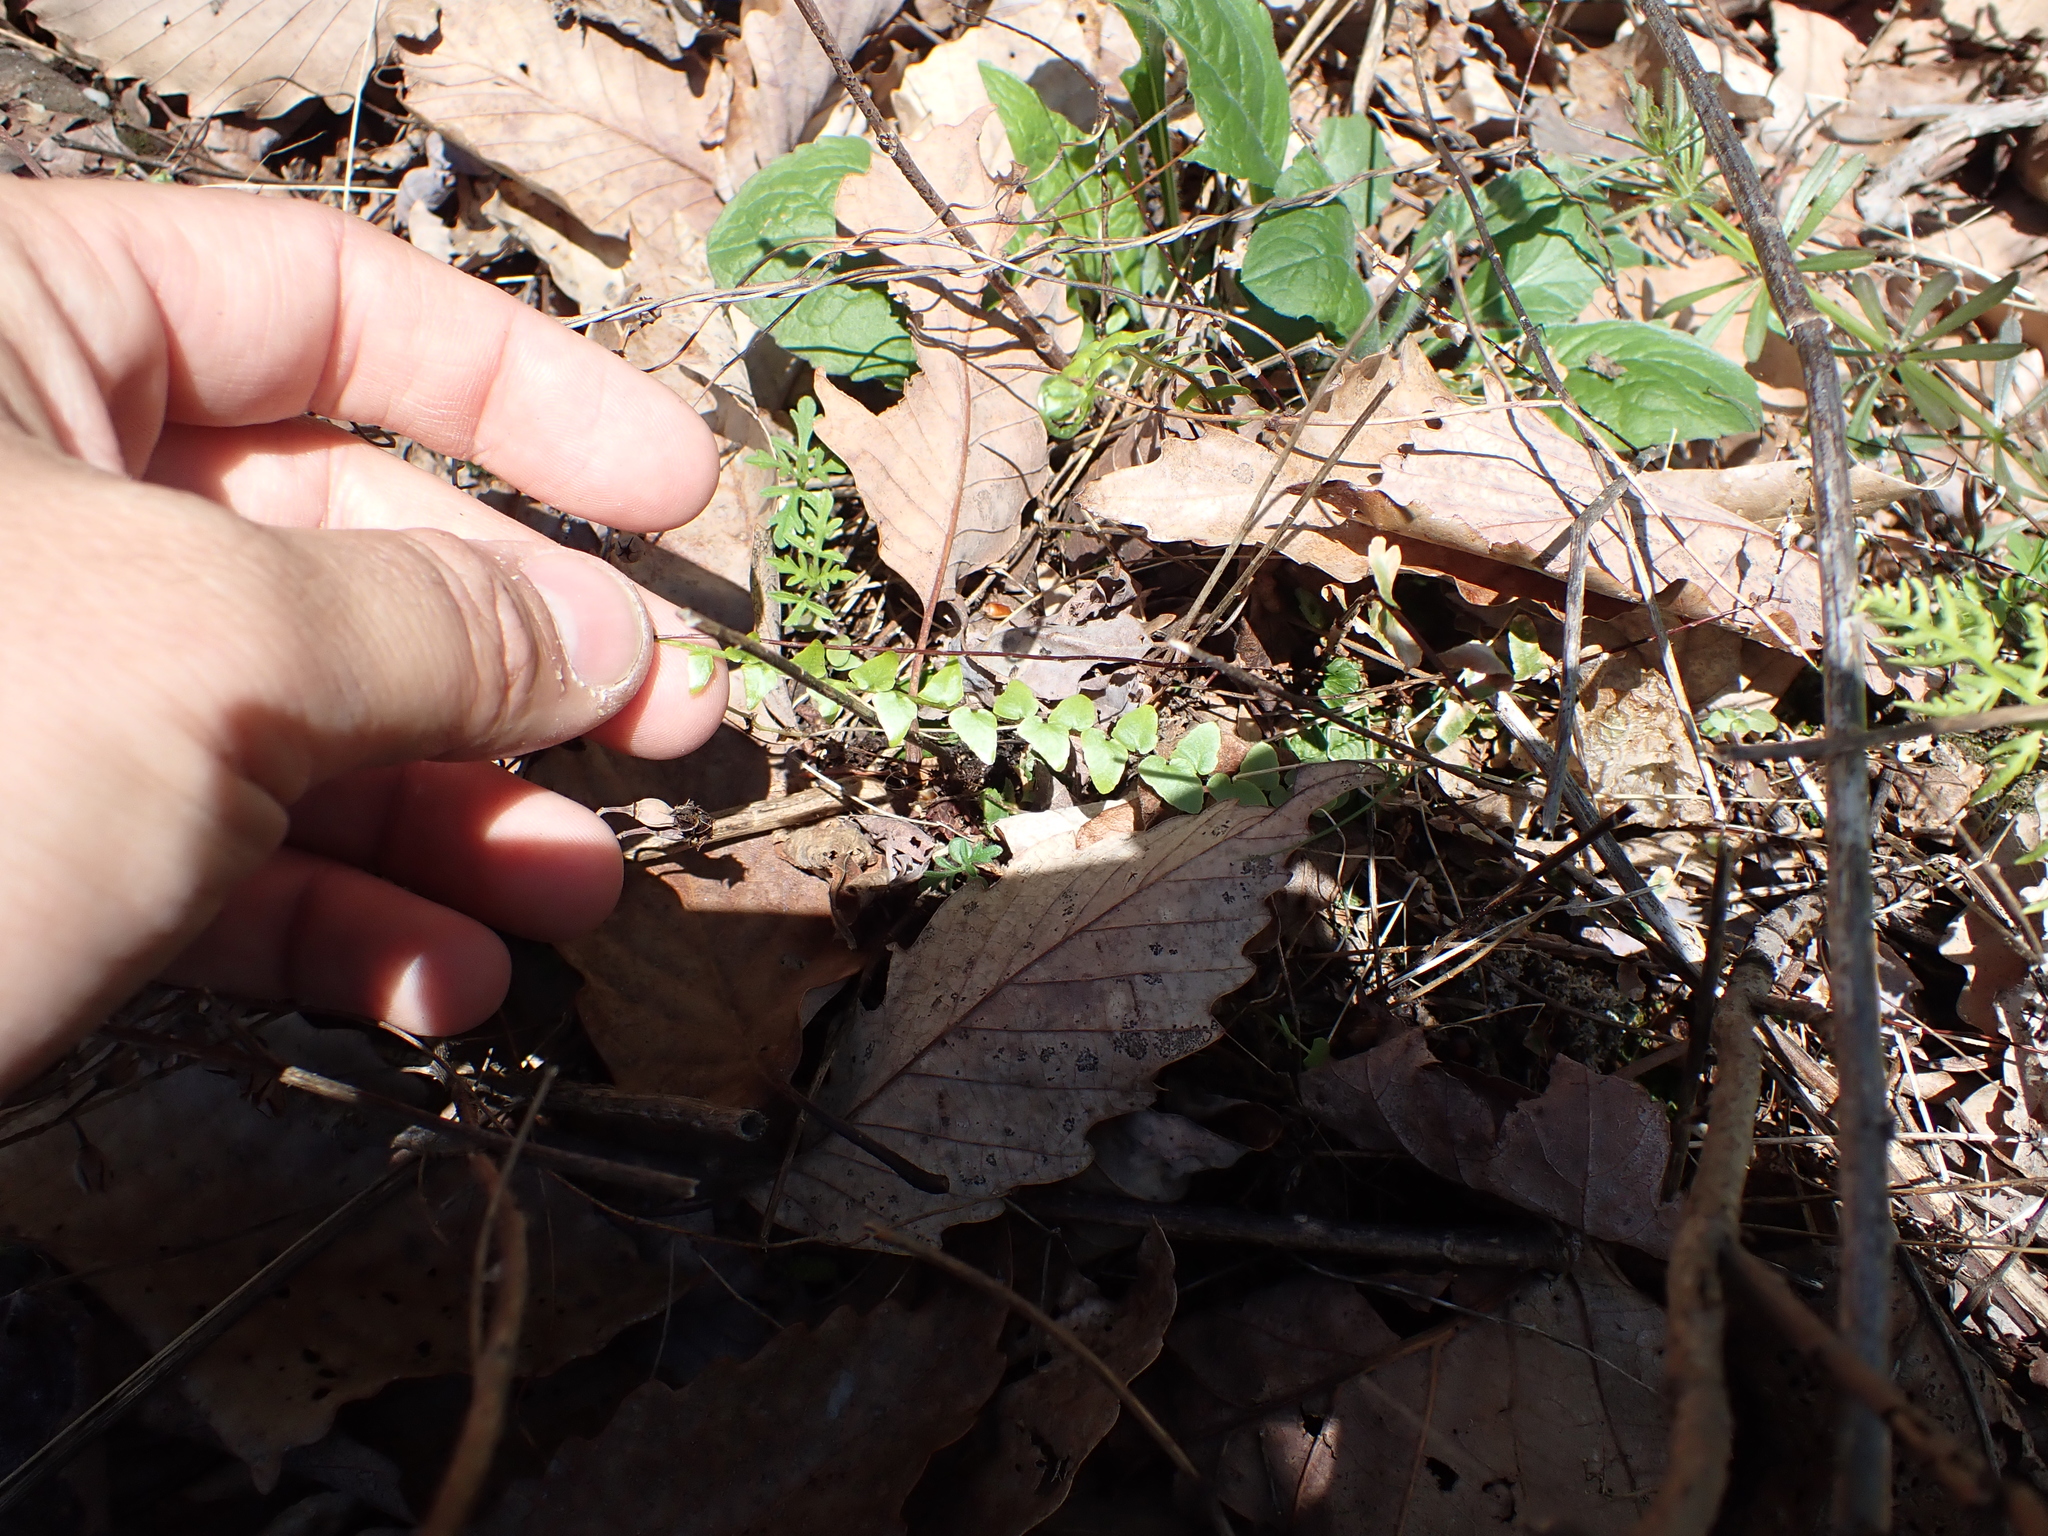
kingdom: Plantae
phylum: Tracheophyta
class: Polypodiopsida
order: Polypodiales
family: Aspleniaceae
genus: Asplenium
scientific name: Asplenium platyneuron
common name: Ebony spleenwort
